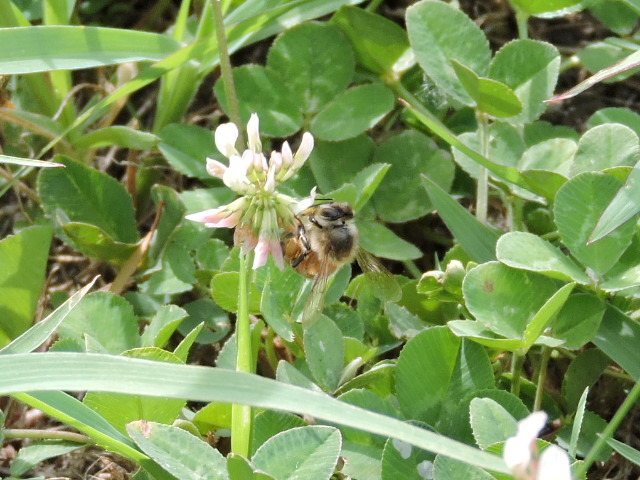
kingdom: Animalia
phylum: Arthropoda
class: Insecta
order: Hymenoptera
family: Apidae
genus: Apis
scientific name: Apis mellifera
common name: Honey bee
